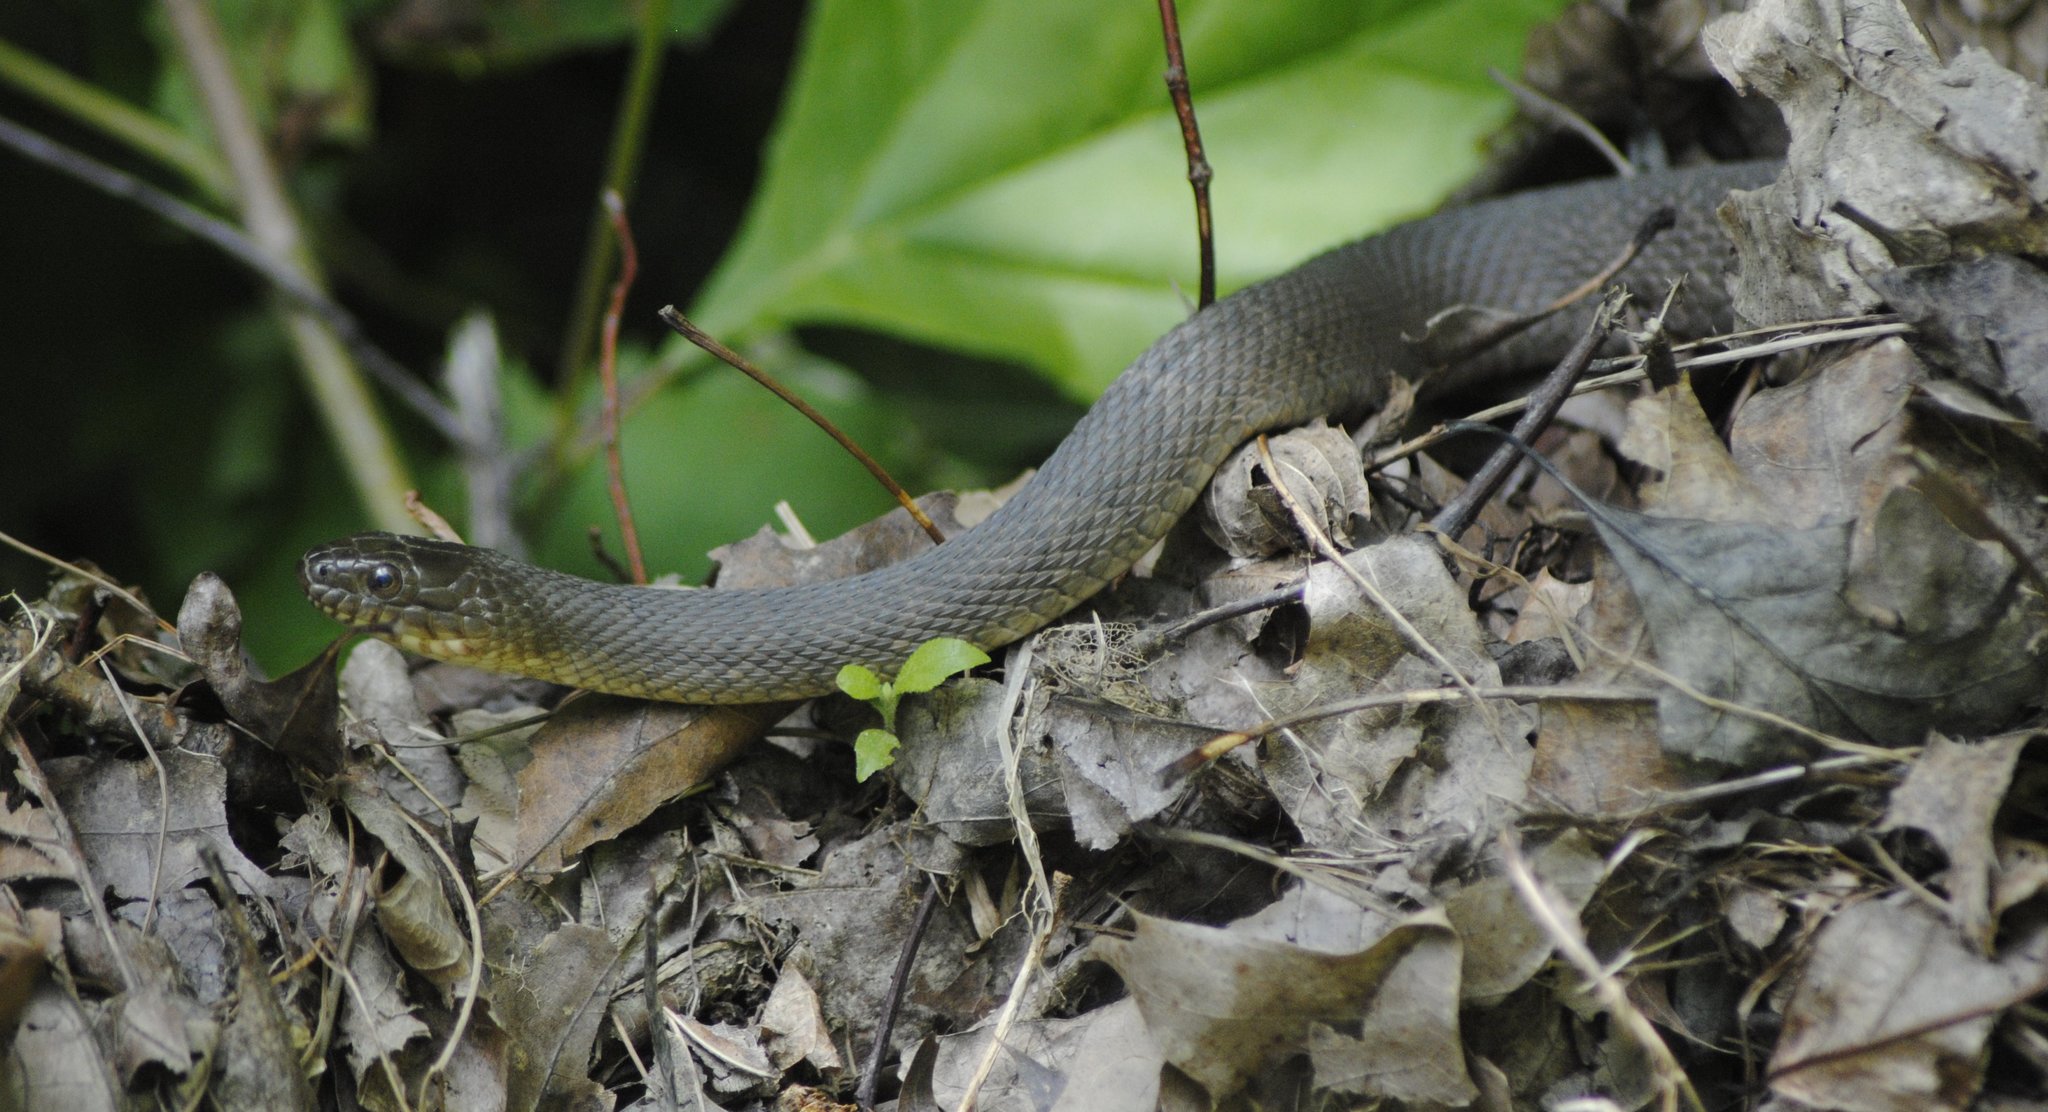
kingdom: Animalia
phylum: Chordata
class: Squamata
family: Colubridae
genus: Nerodia
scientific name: Nerodia sipedon
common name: Northern water snake
